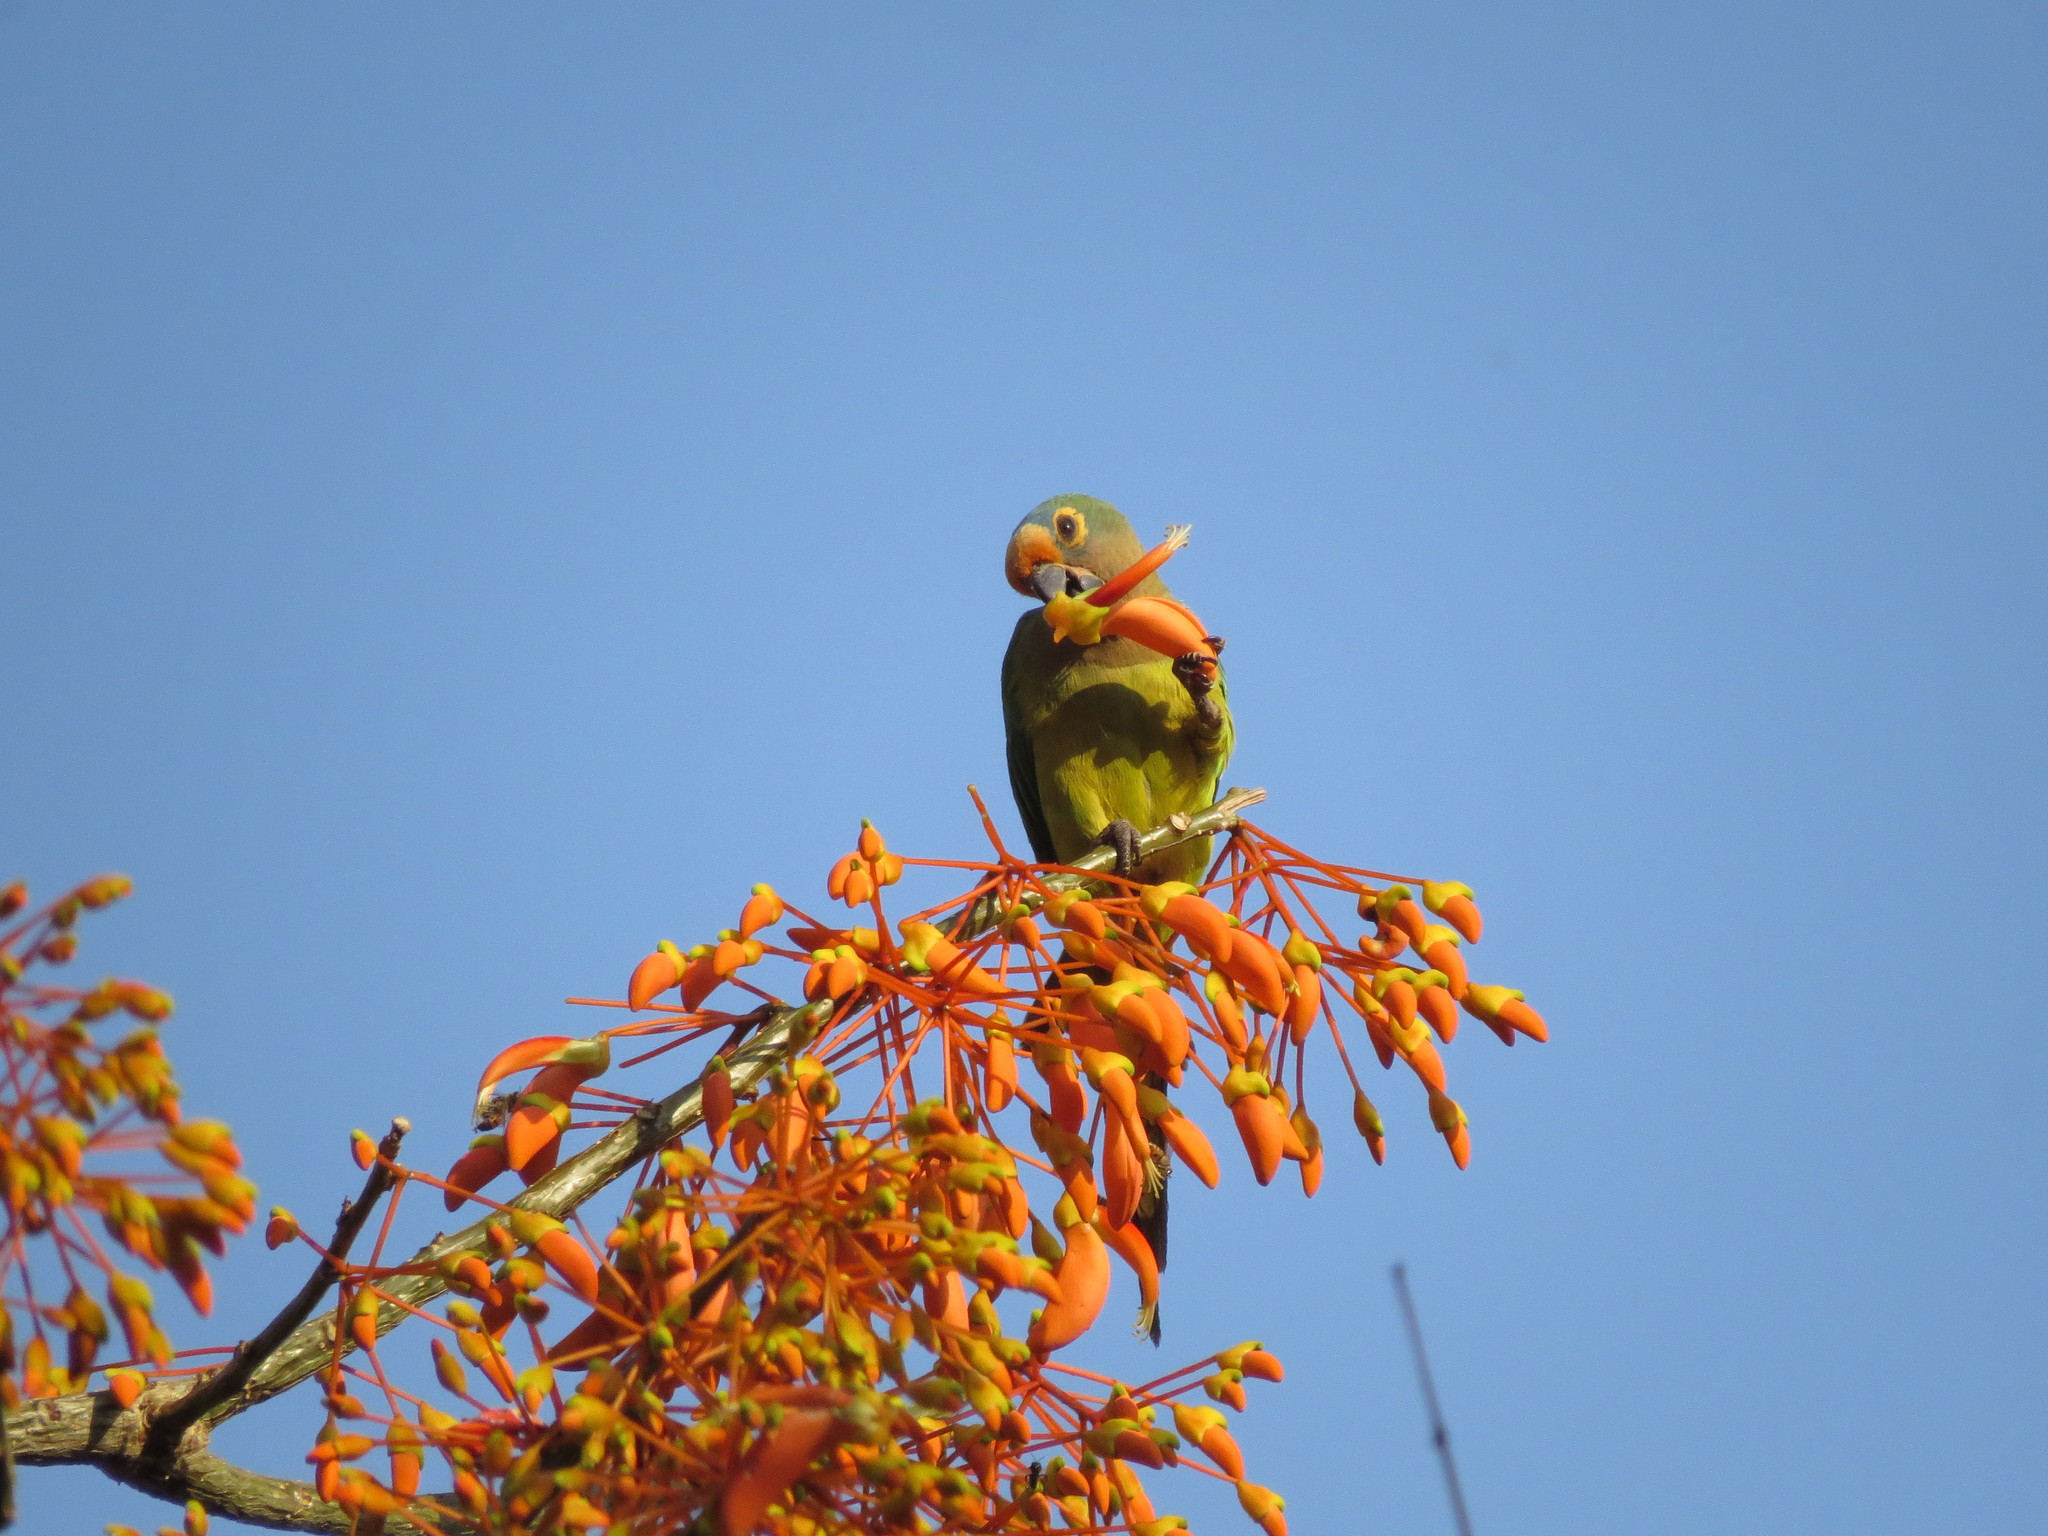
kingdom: Animalia
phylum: Chordata
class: Aves
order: Psittaciformes
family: Psittacidae
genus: Aratinga
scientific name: Aratinga aurea
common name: Peach-fronted parakeet
